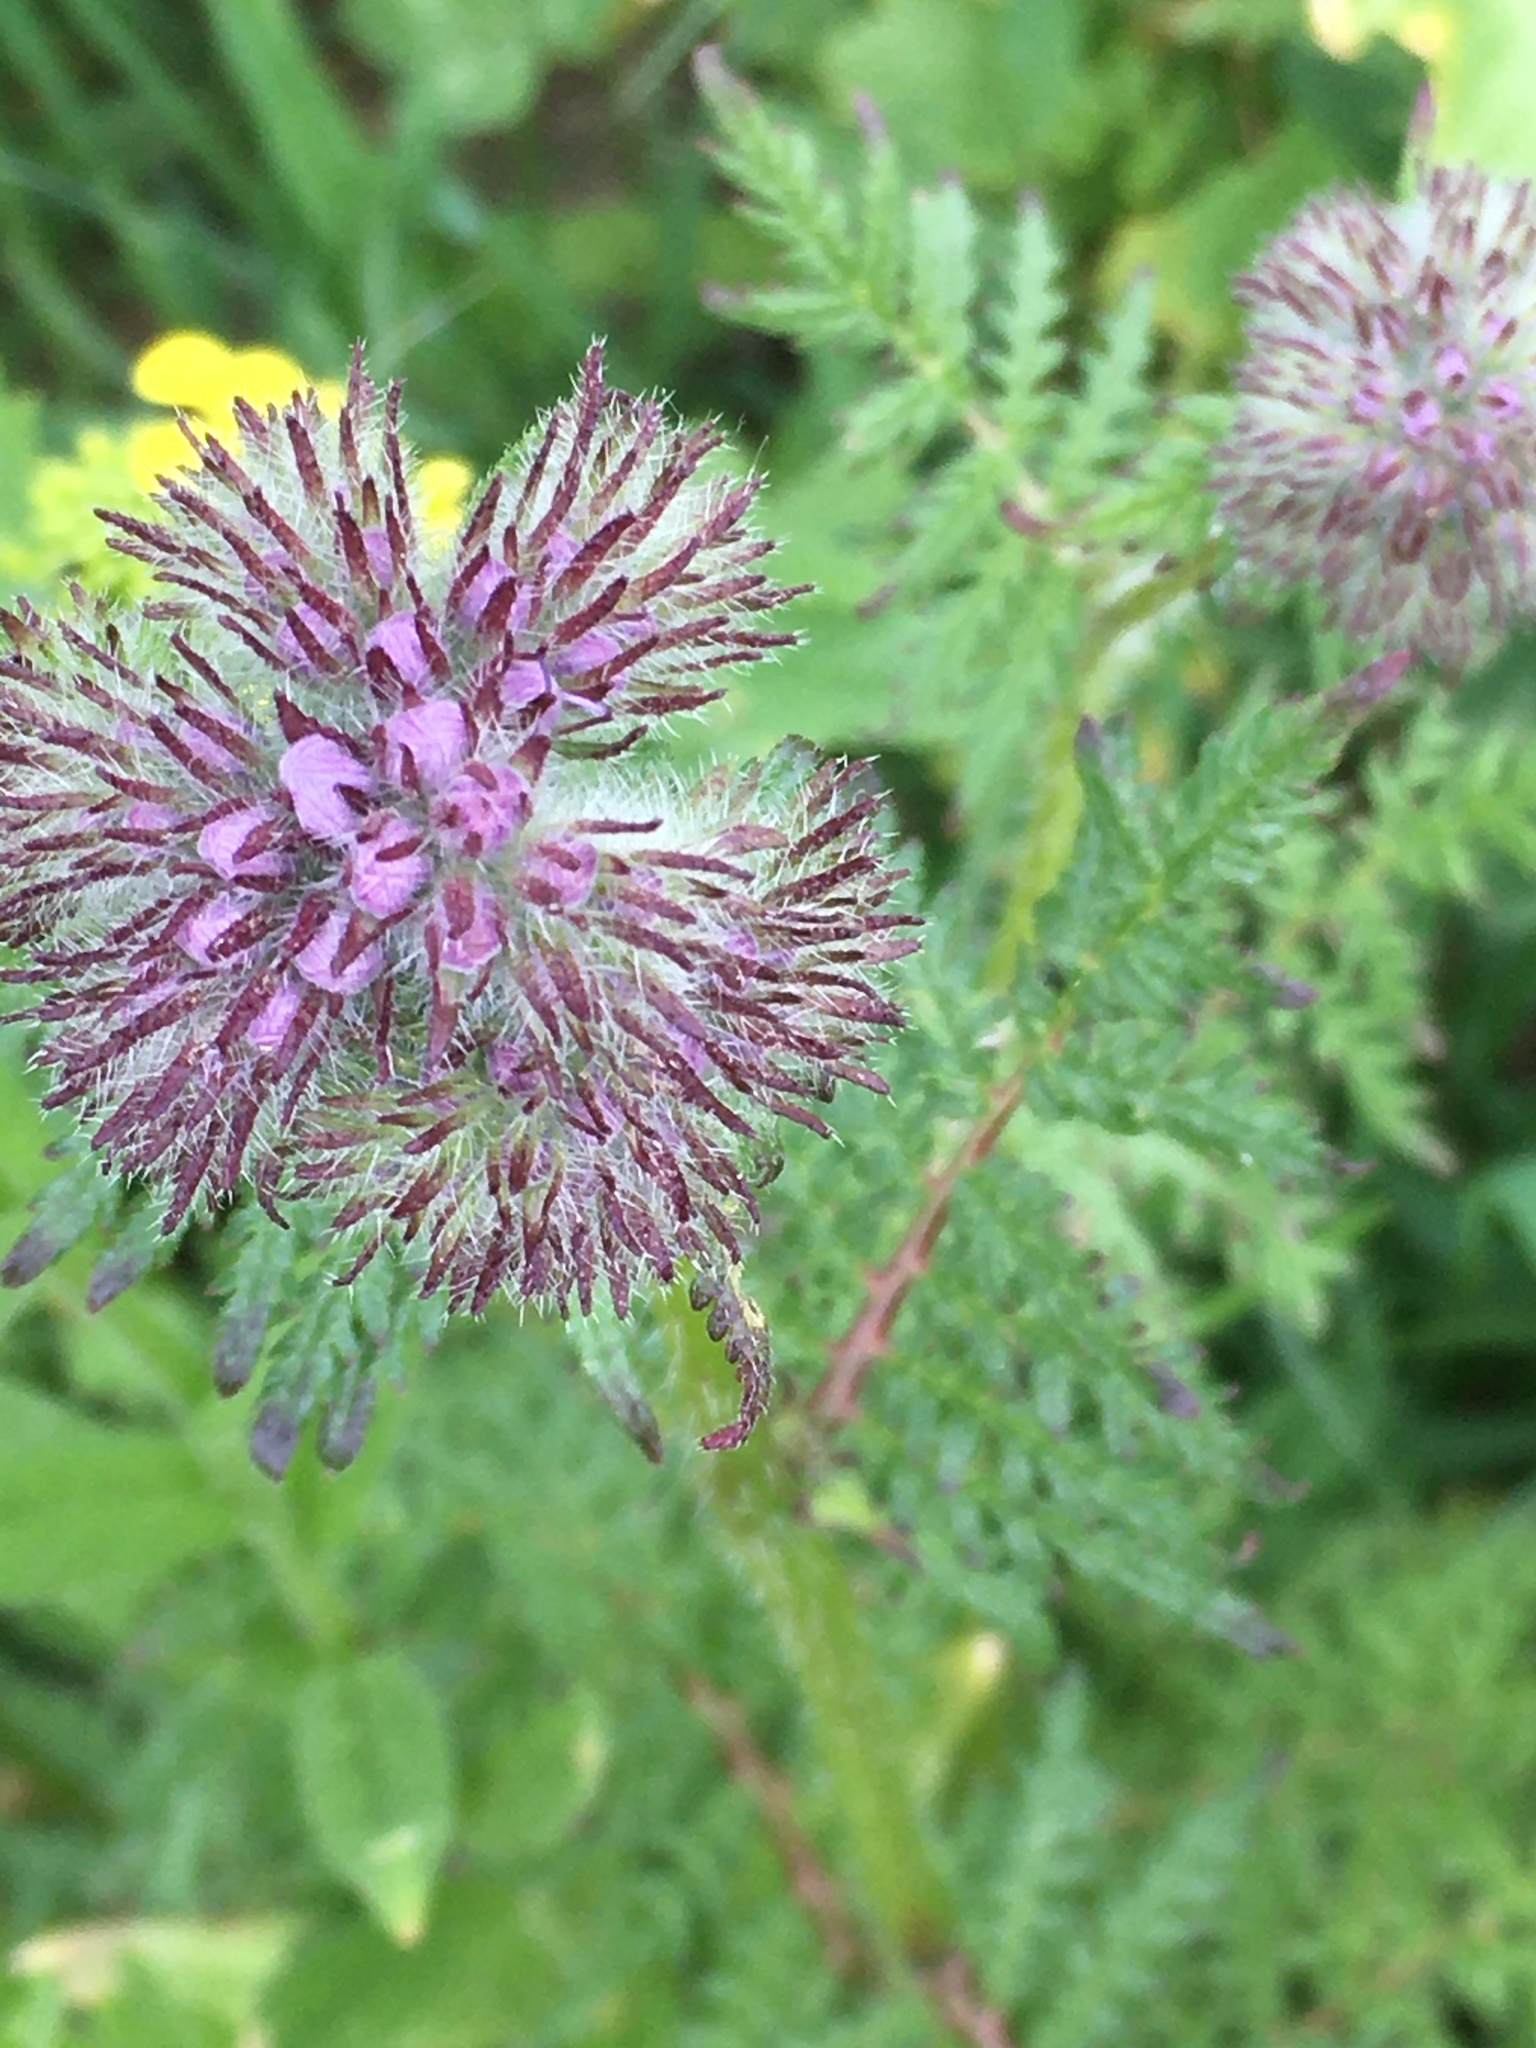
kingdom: Plantae
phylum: Tracheophyta
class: Magnoliopsida
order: Boraginales
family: Hydrophyllaceae
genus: Phacelia
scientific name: Phacelia tanacetifolia
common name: Phacelia
